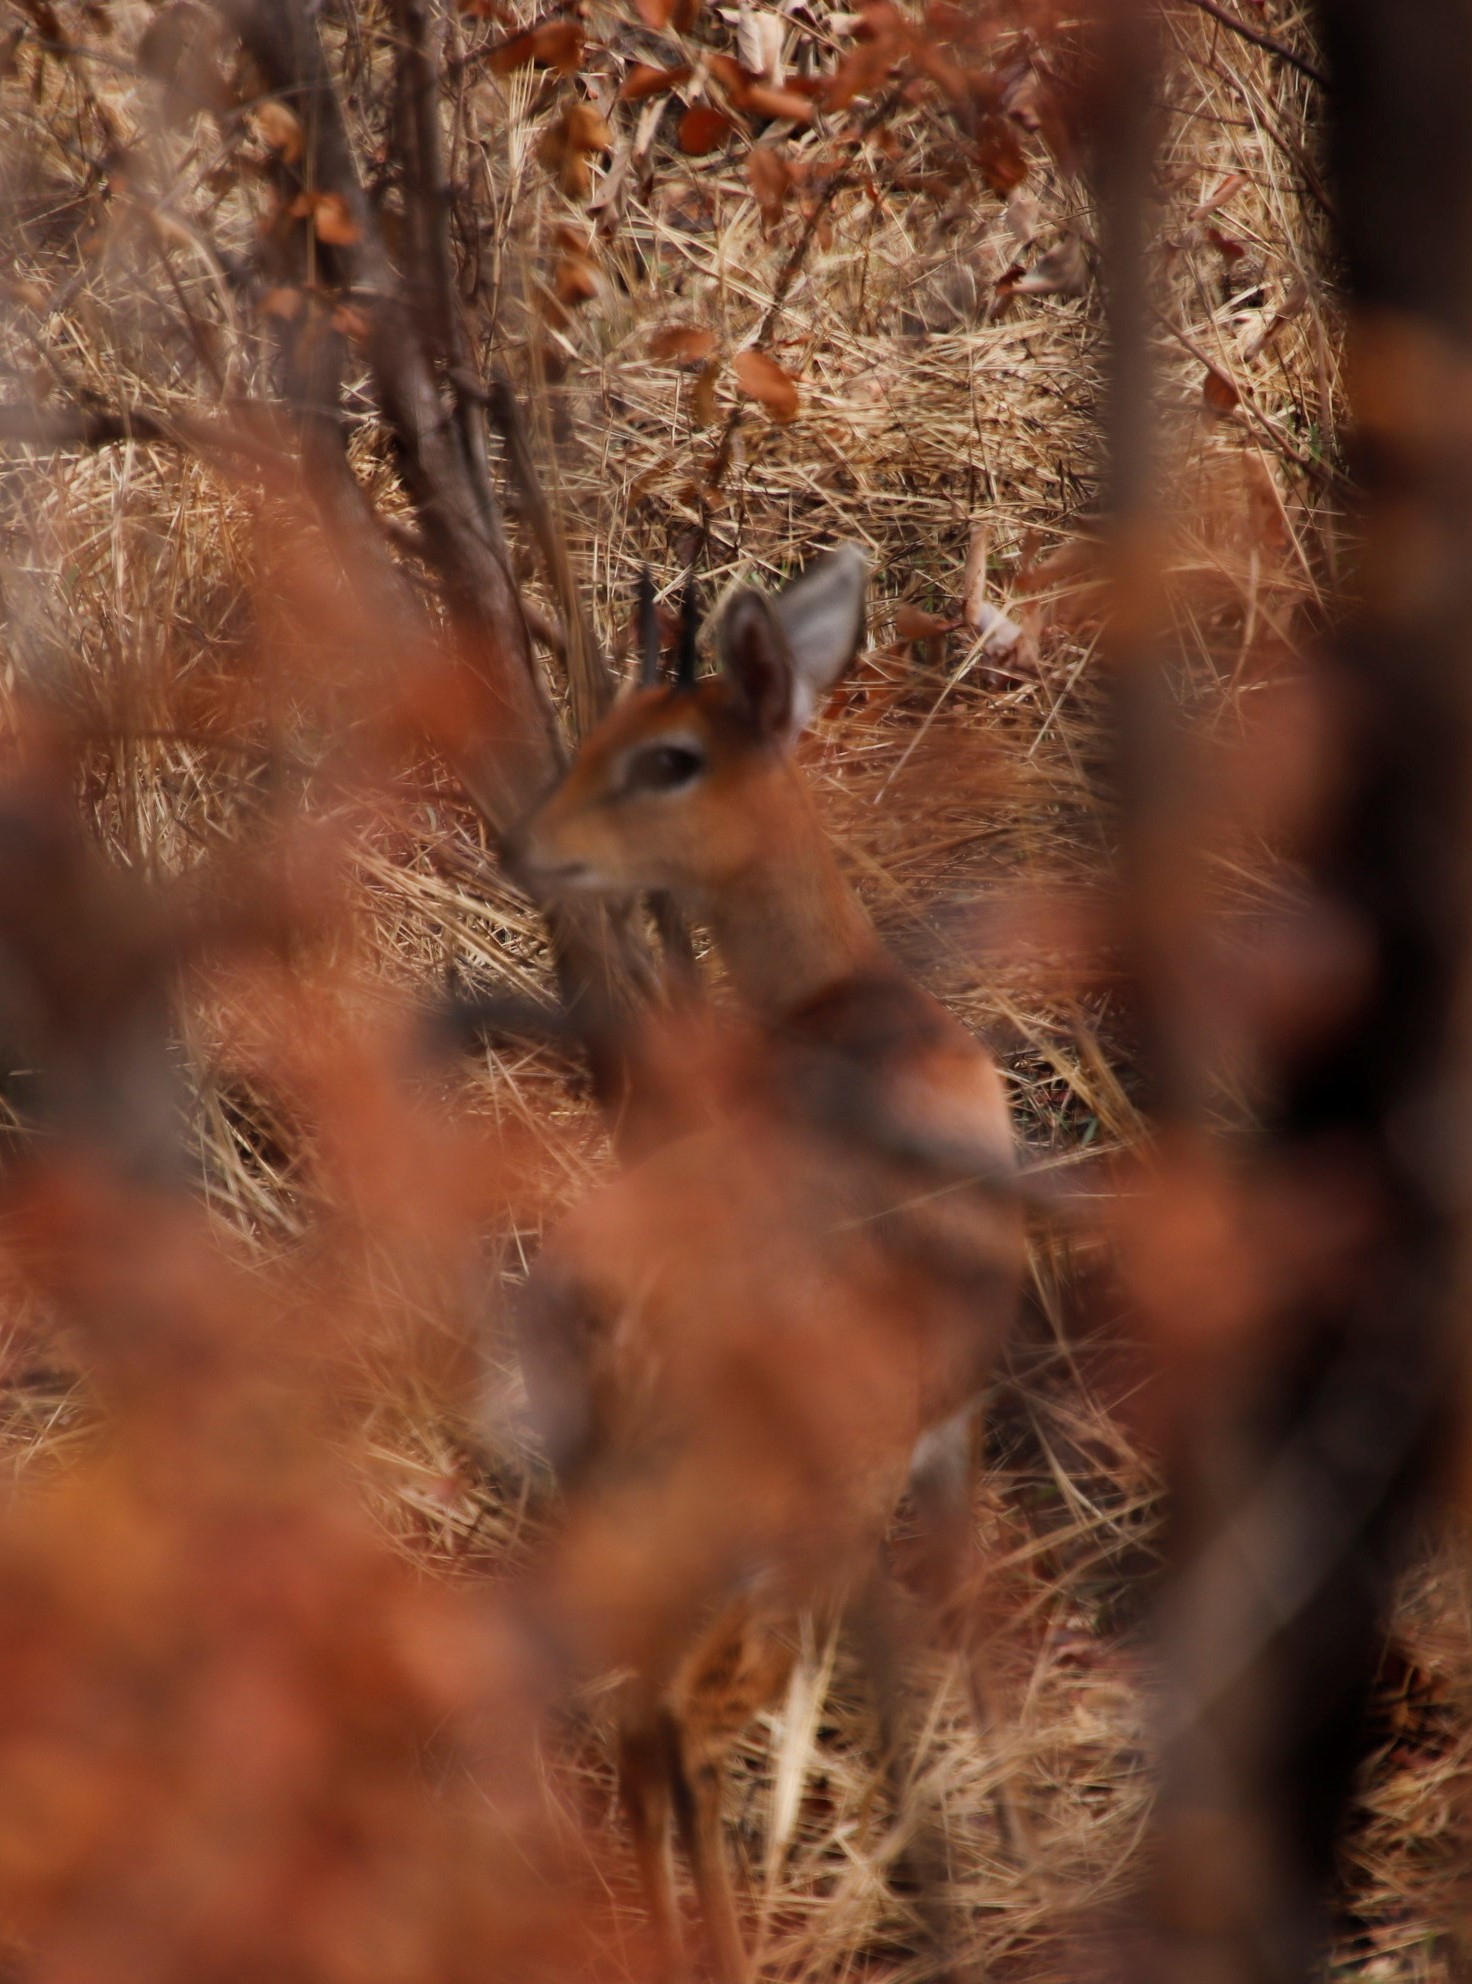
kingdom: Animalia
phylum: Chordata
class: Mammalia
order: Artiodactyla
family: Bovidae
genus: Raphicerus
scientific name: Raphicerus campestris
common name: Steenbok
